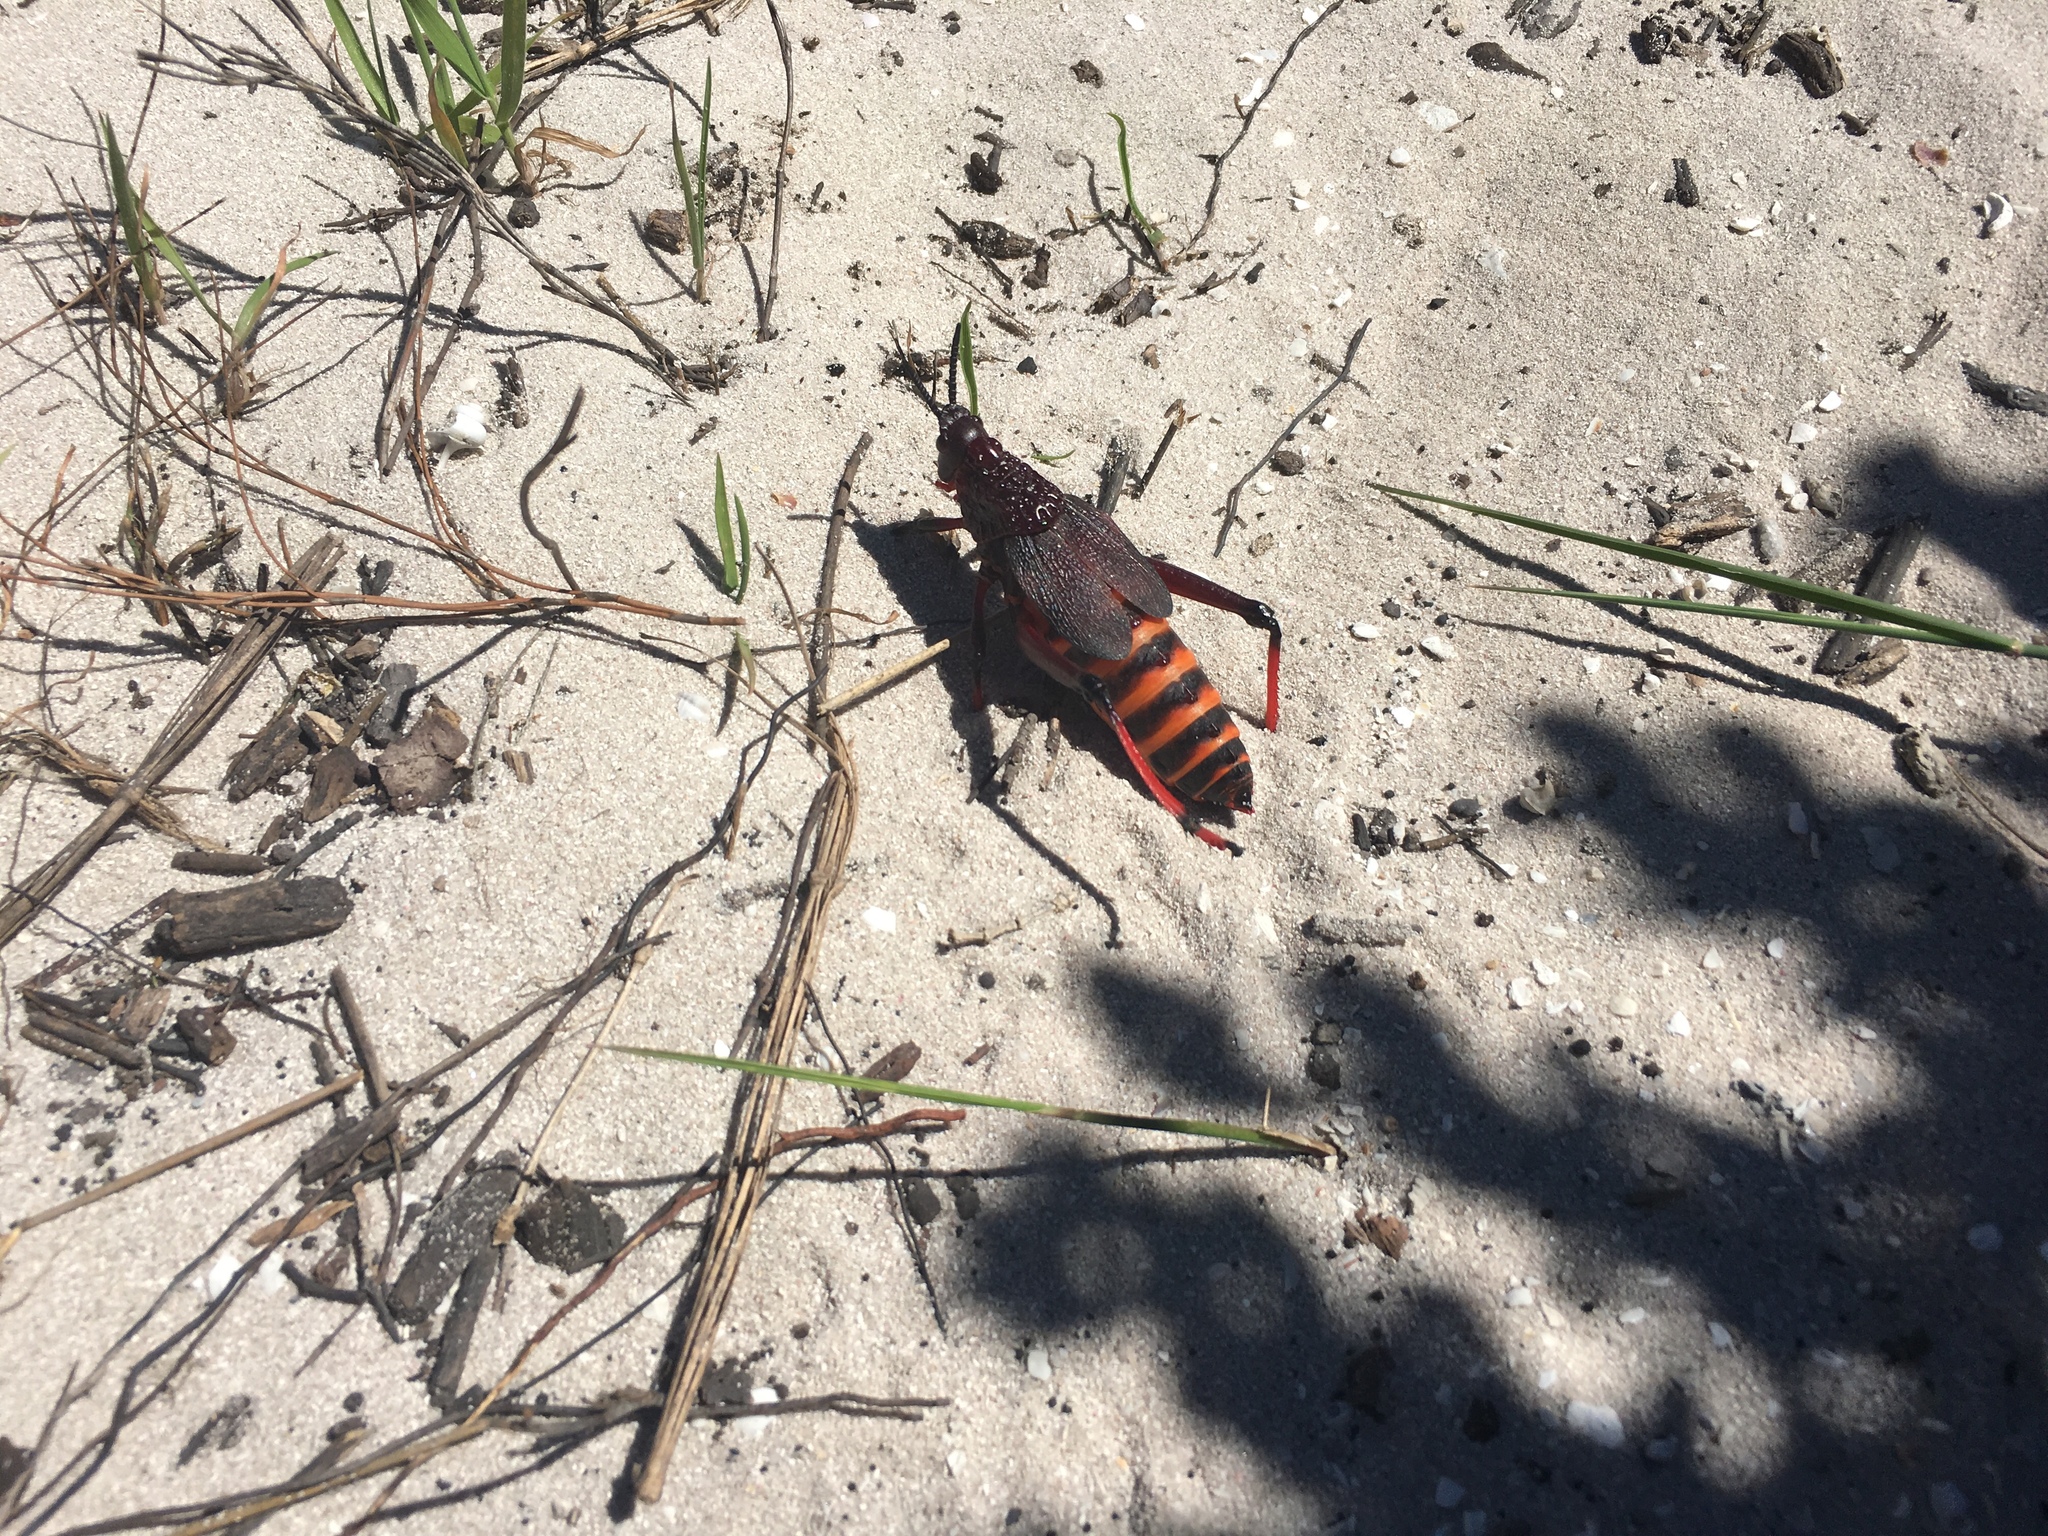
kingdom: Animalia
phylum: Arthropoda
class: Insecta
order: Orthoptera
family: Pyrgomorphidae
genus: Dictyophorus
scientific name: Dictyophorus spumans
